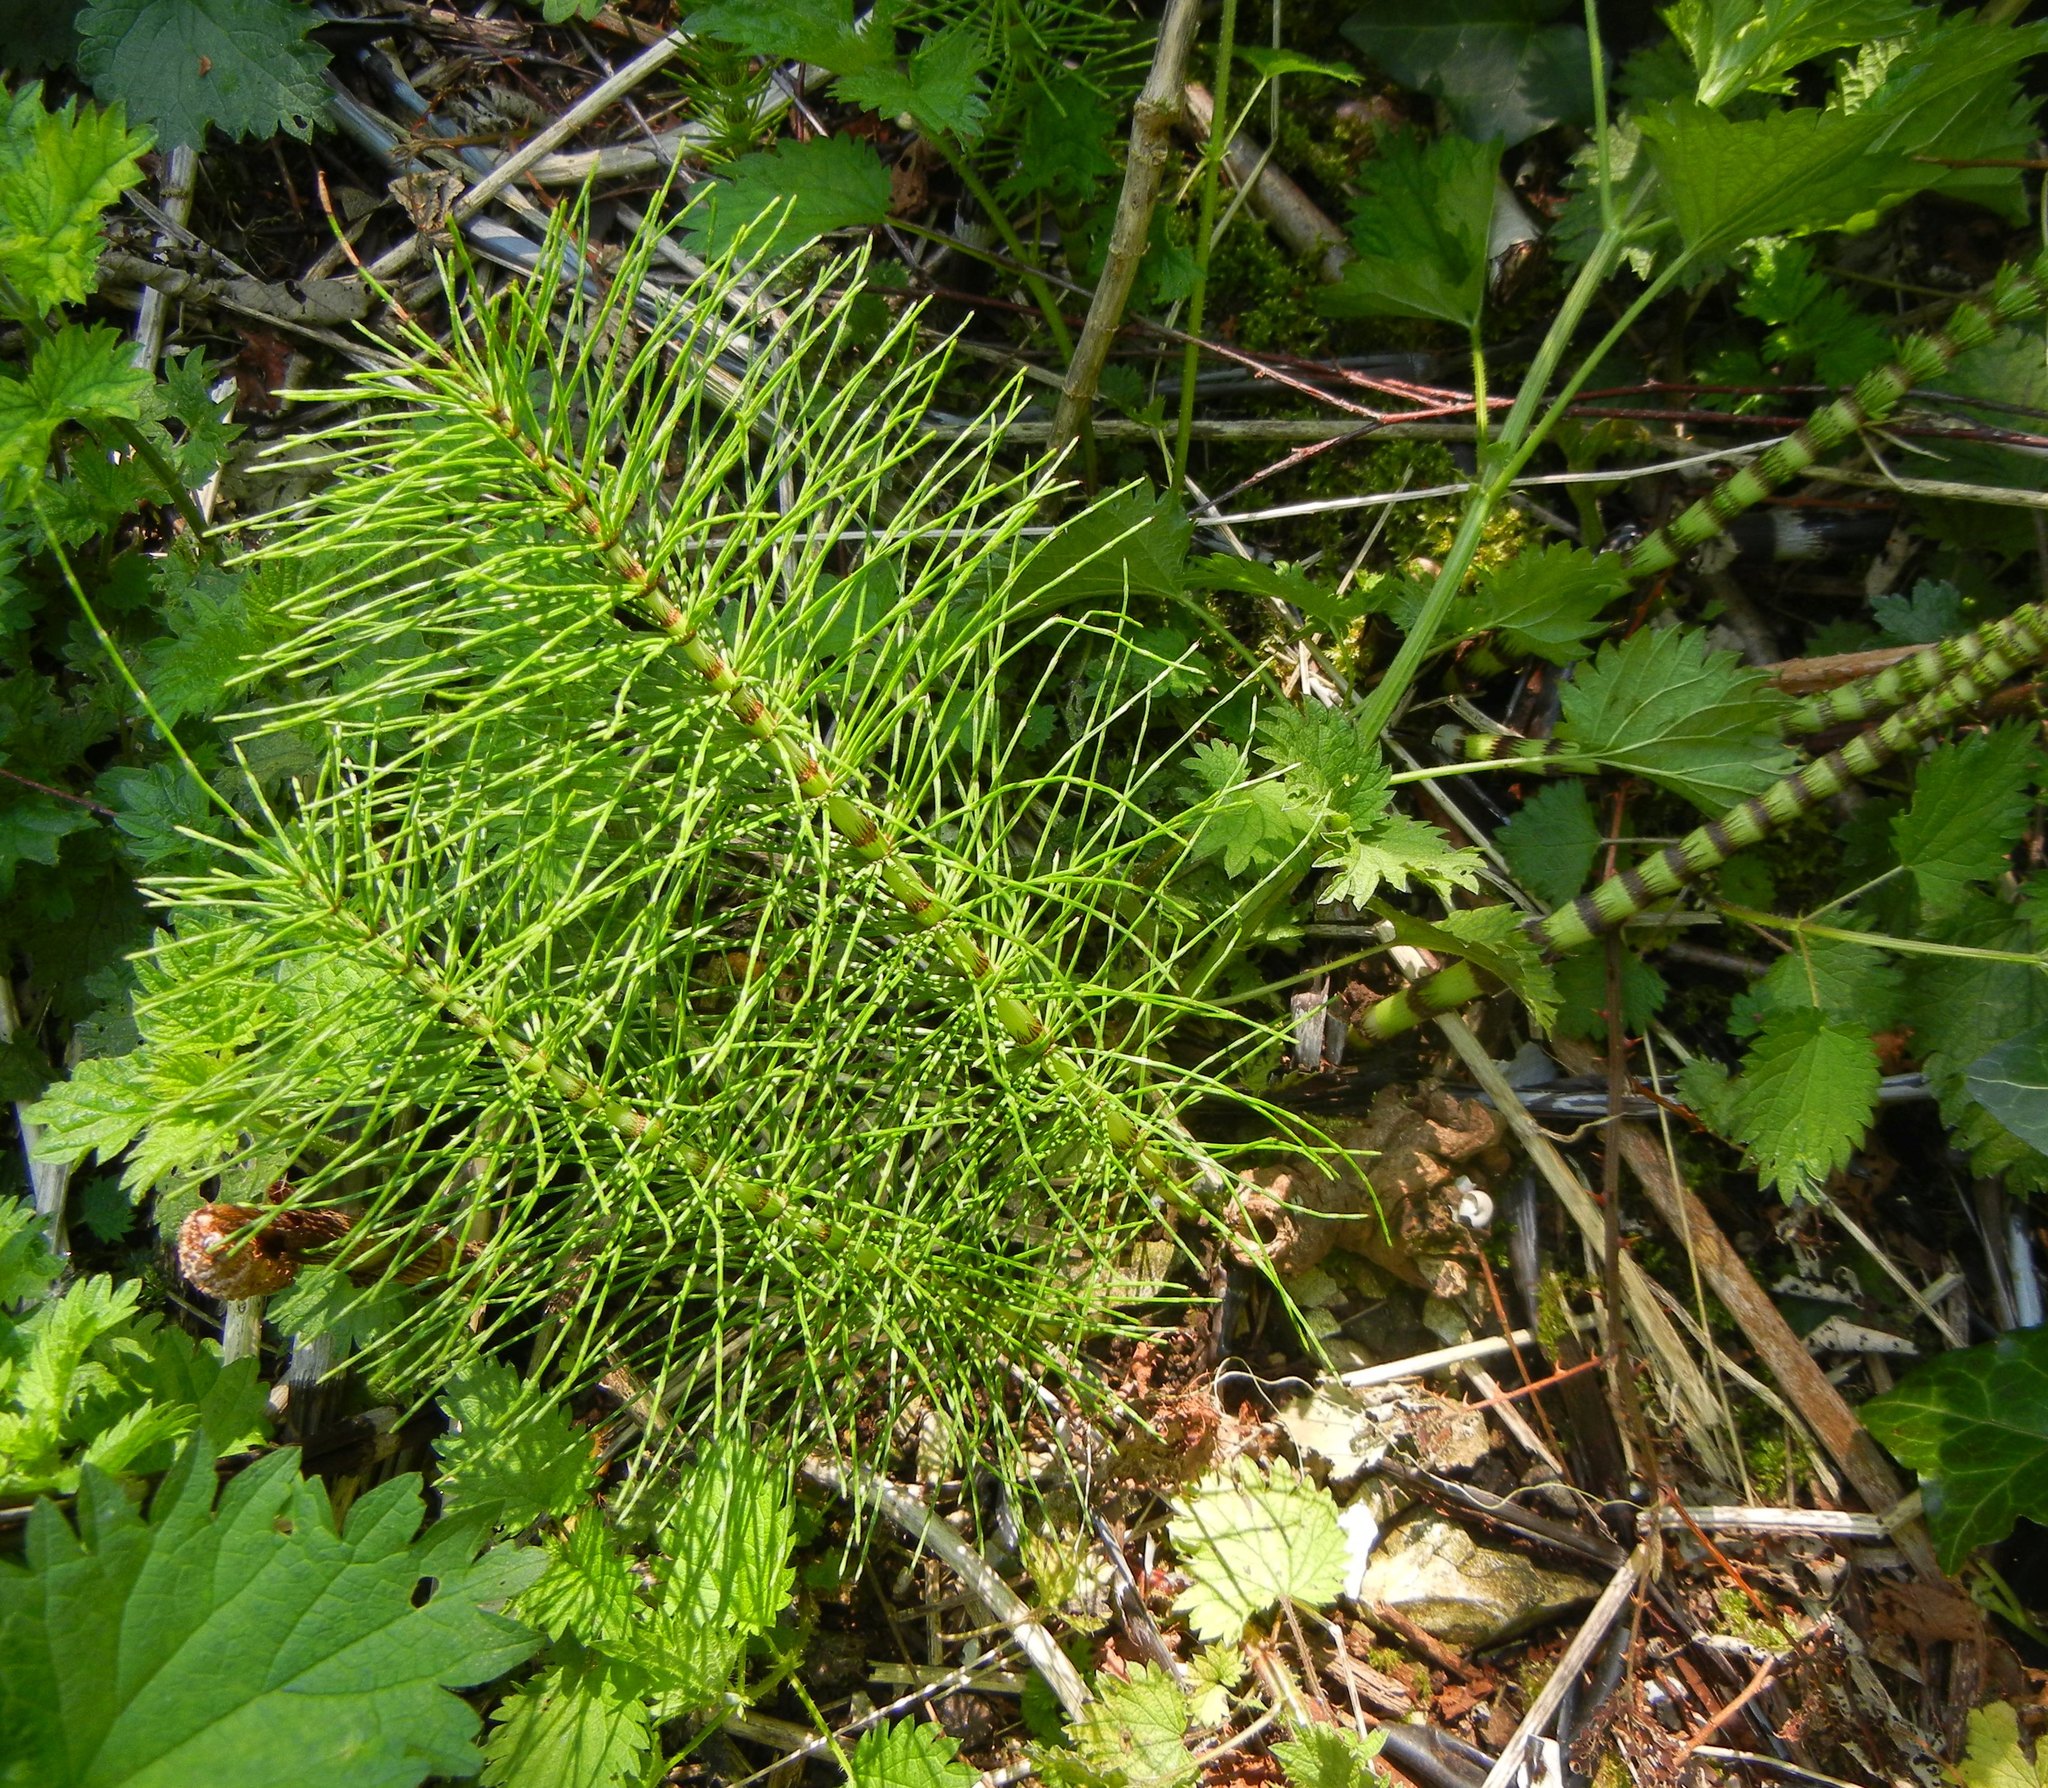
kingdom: Plantae
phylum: Tracheophyta
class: Polypodiopsida
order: Equisetales
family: Equisetaceae
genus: Equisetum
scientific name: Equisetum telmateia
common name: Great horsetail
